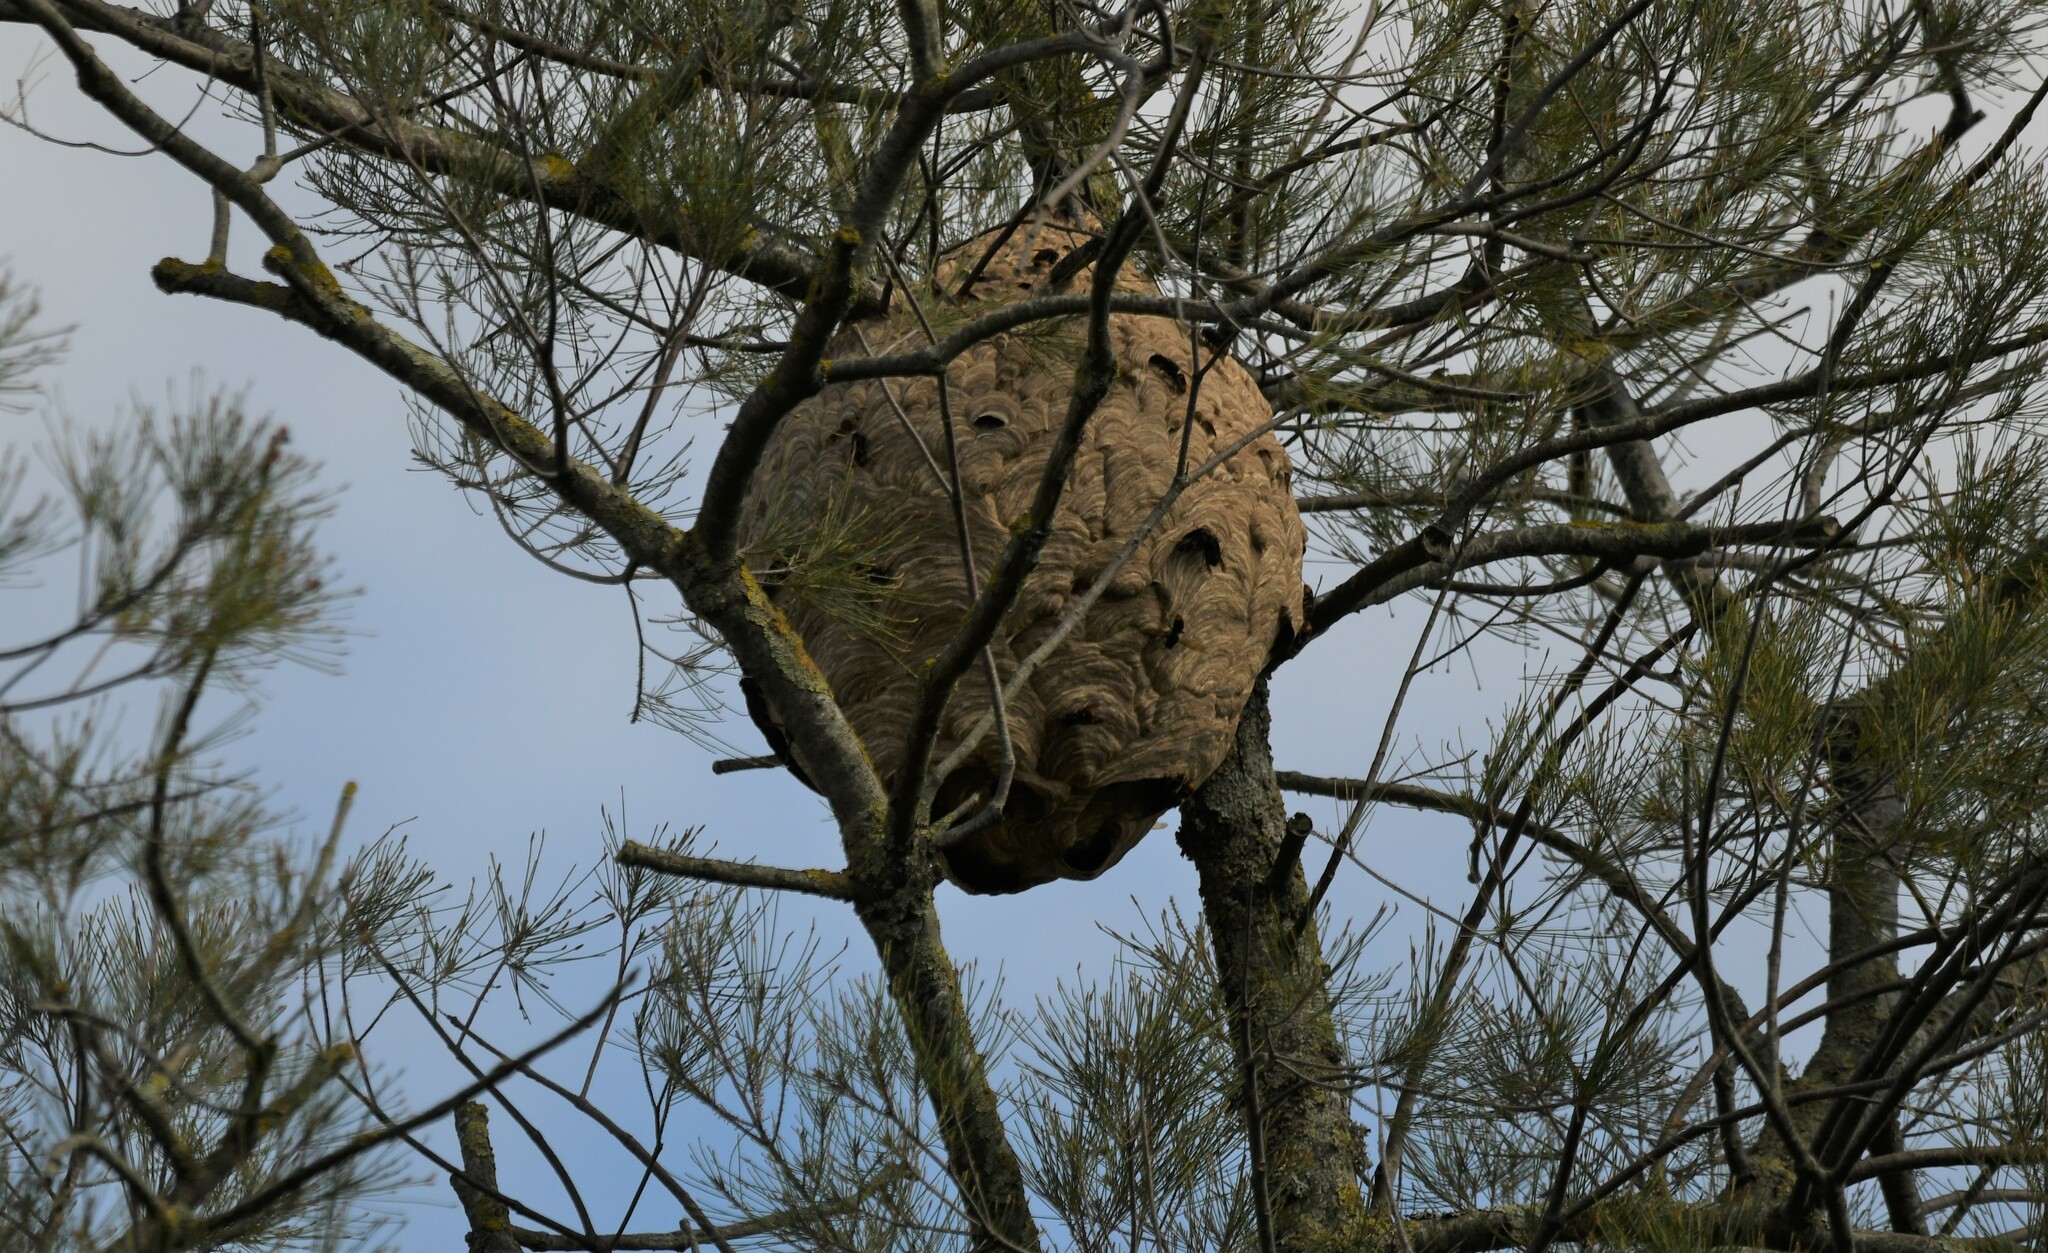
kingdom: Animalia
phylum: Arthropoda
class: Insecta
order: Hymenoptera
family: Vespidae
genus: Vespa
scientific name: Vespa velutina
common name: Asian hornet
